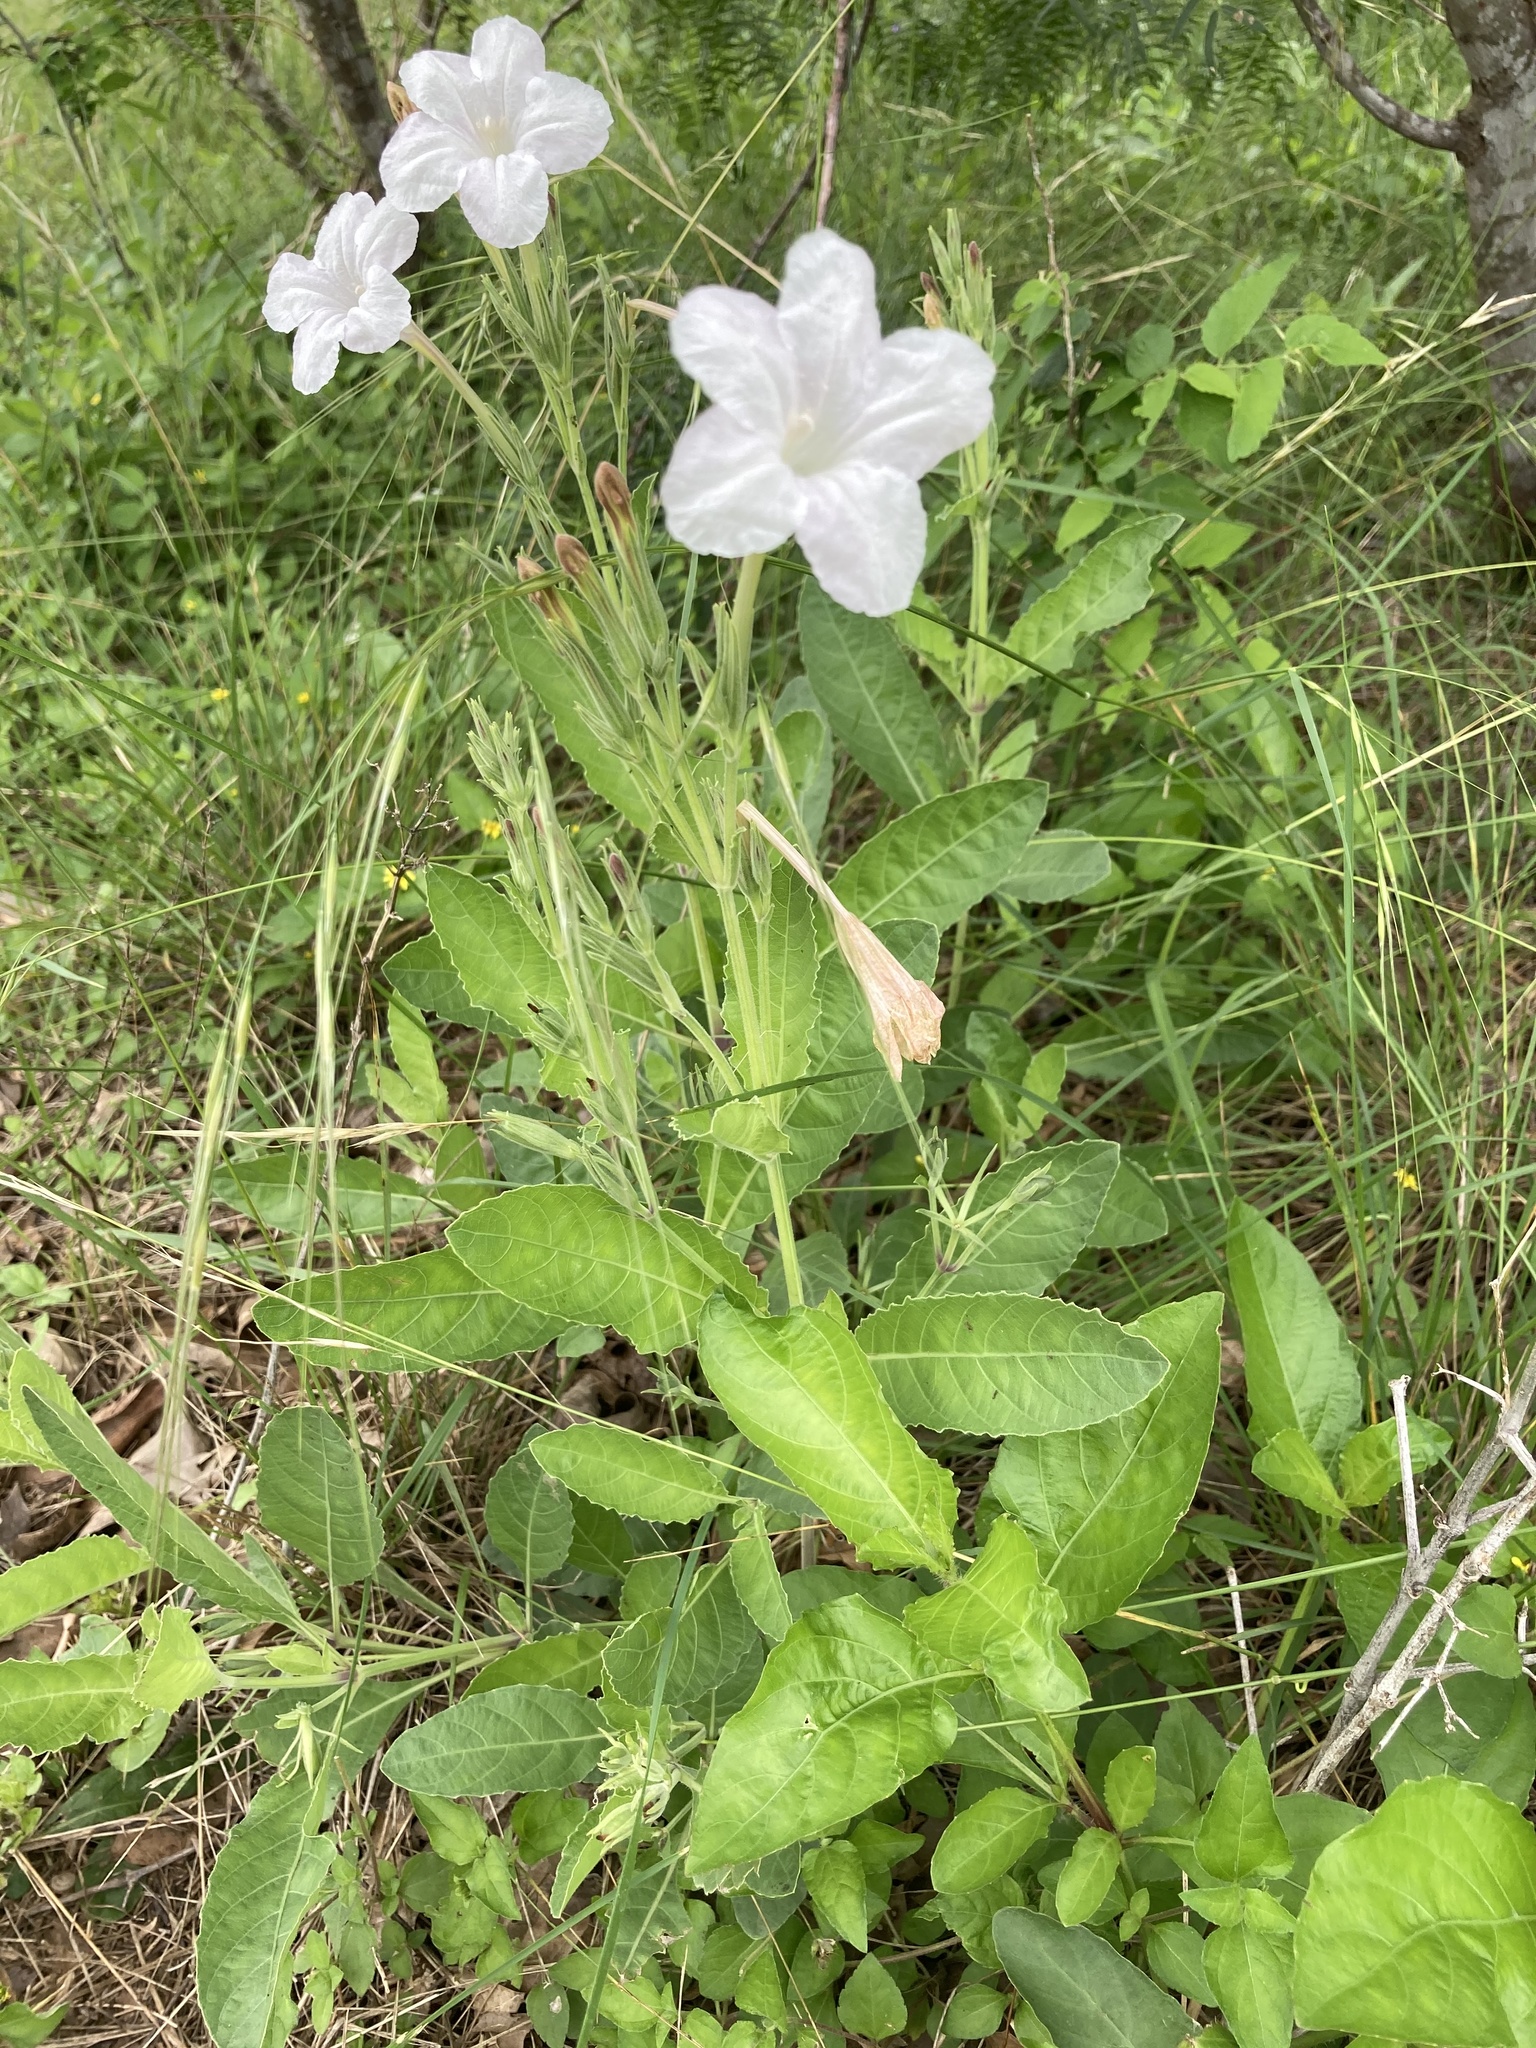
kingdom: Plantae
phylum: Tracheophyta
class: Magnoliopsida
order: Lamiales
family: Acanthaceae
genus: Ruellia
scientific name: Ruellia metziae
